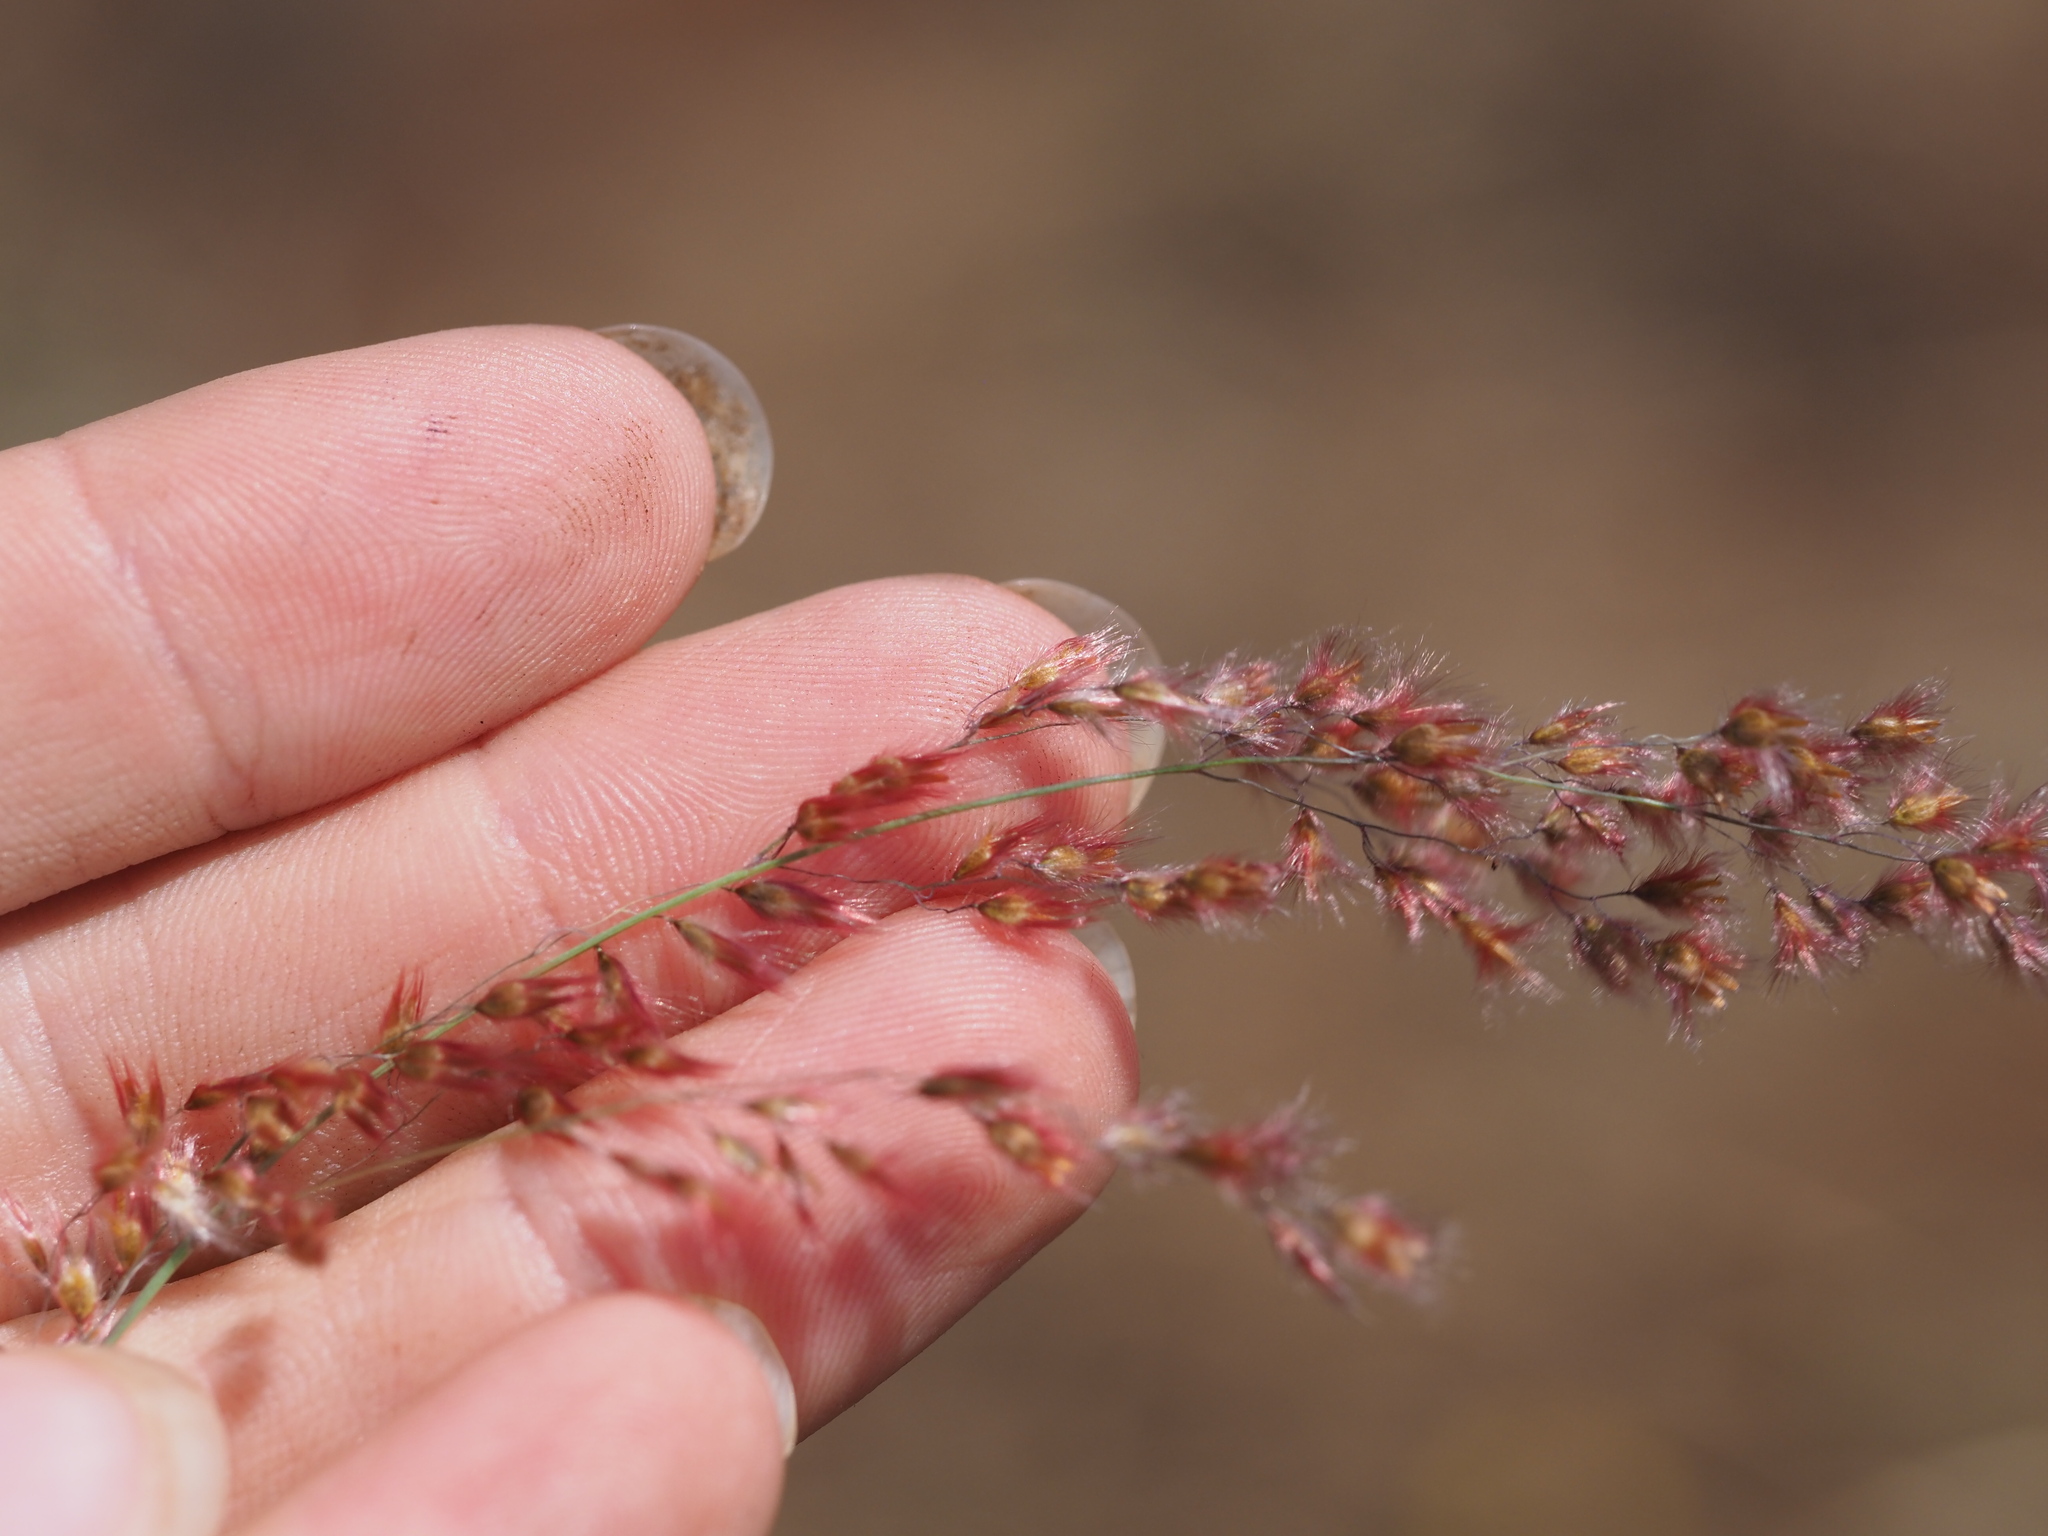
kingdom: Plantae
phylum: Tracheophyta
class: Liliopsida
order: Poales
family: Poaceae
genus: Melinis
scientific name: Melinis repens
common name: Rose natal grass
